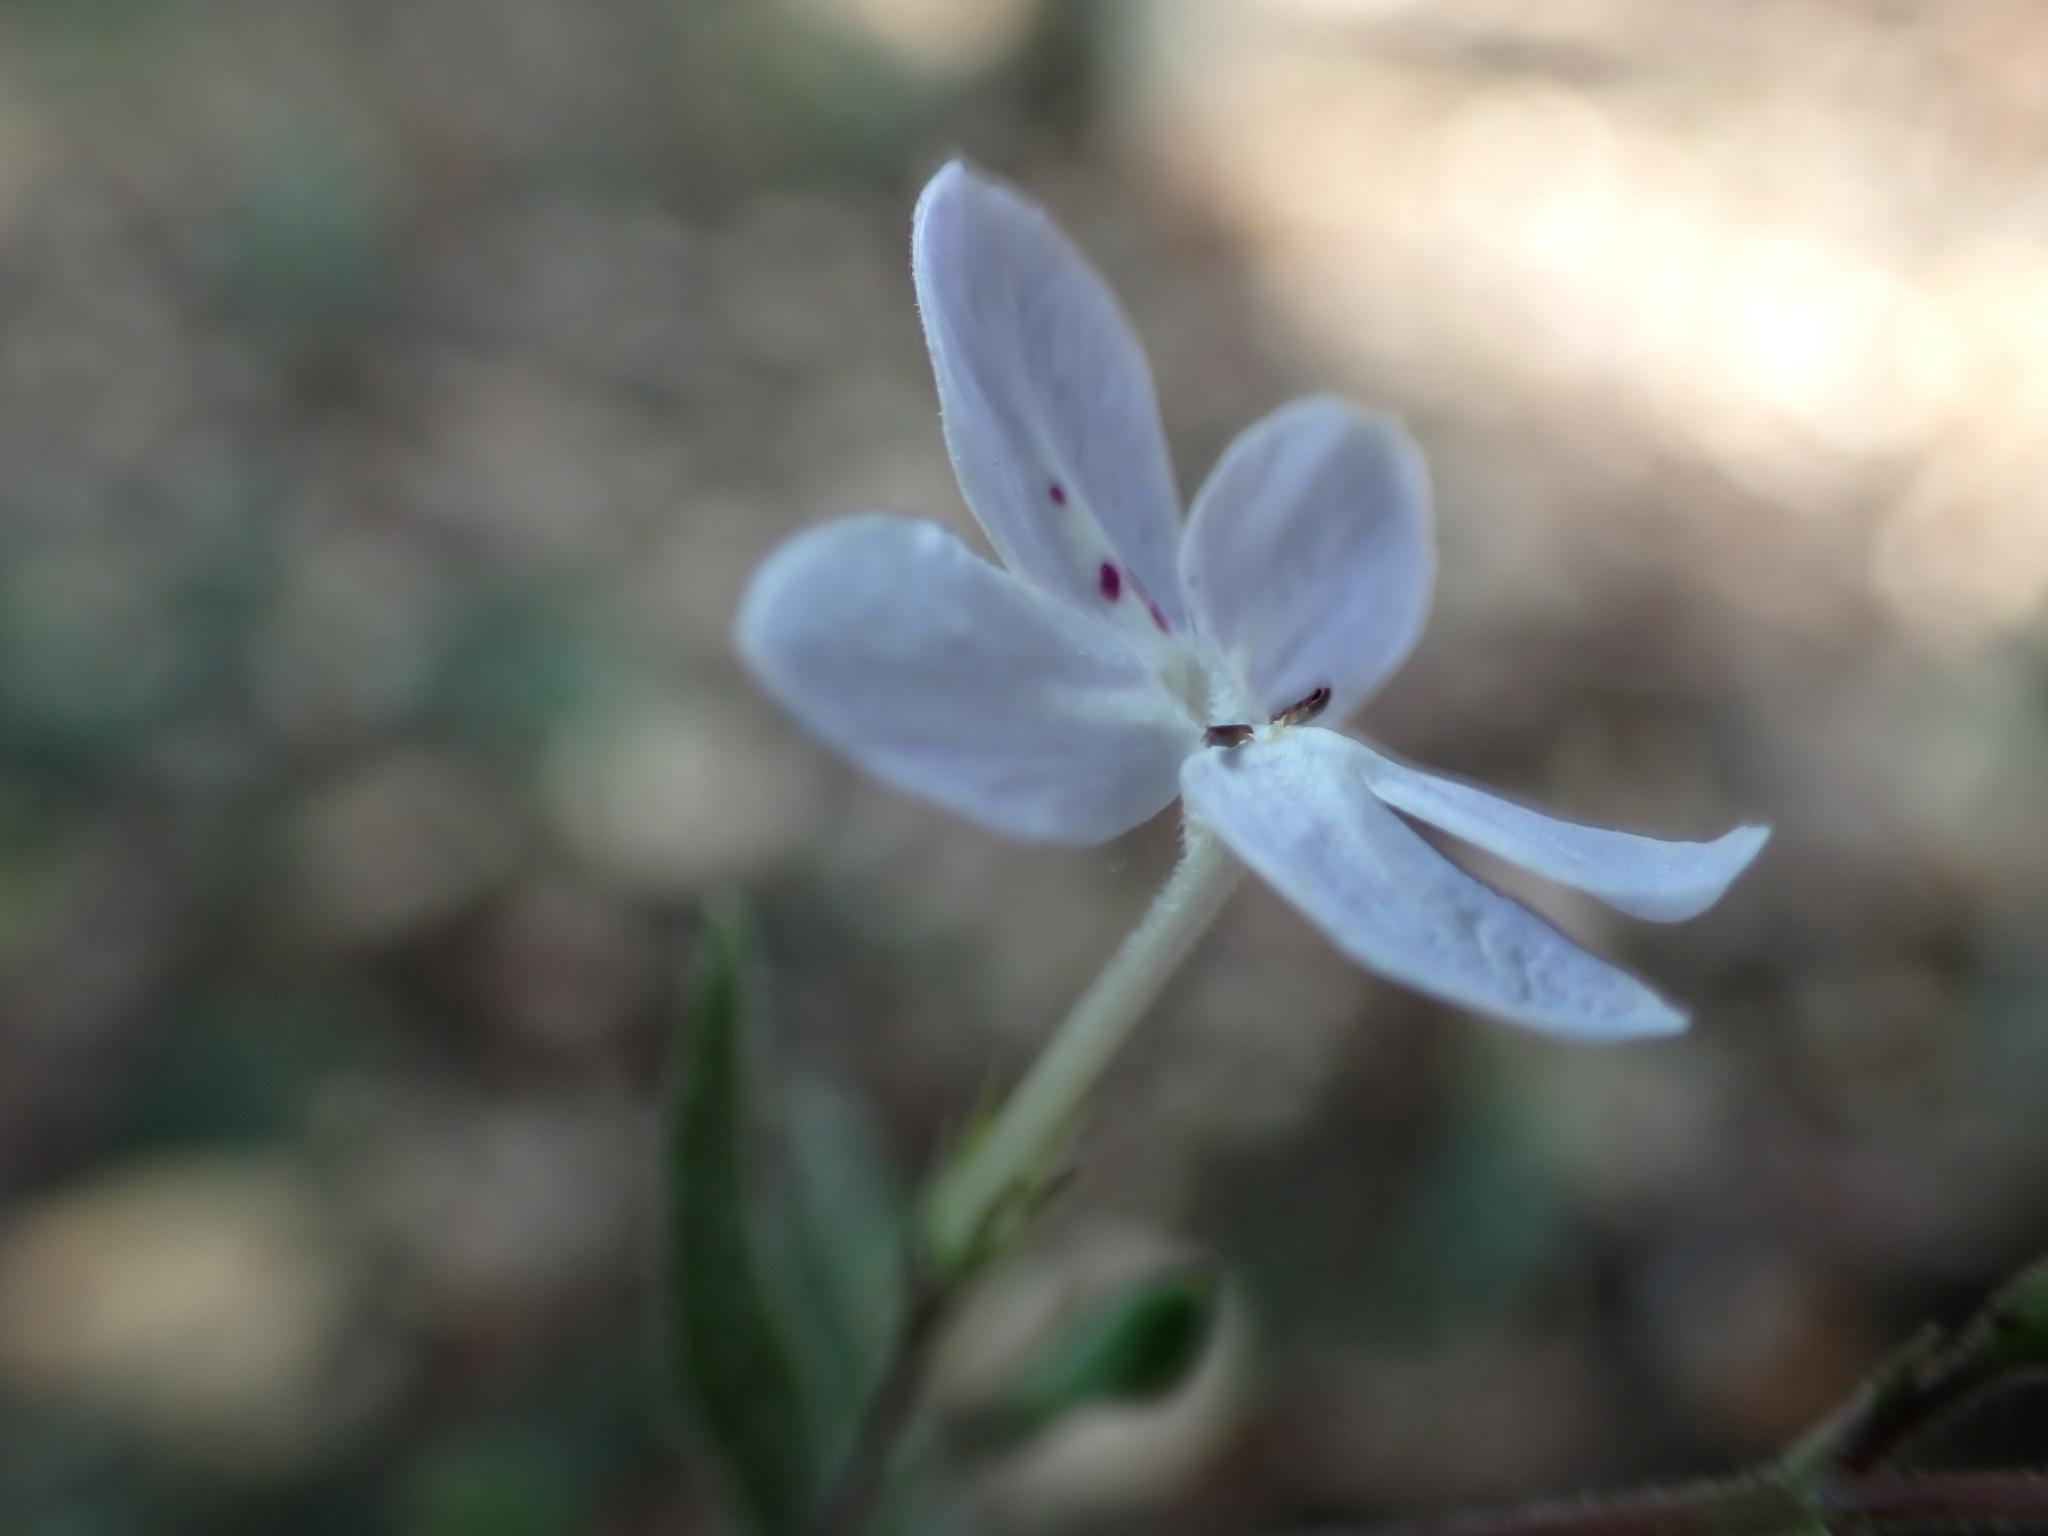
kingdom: Plantae
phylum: Tracheophyta
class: Magnoliopsida
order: Lamiales
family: Acanthaceae
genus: Pseuderanthemum
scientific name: Pseuderanthemum variabile
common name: Night and afternoon
